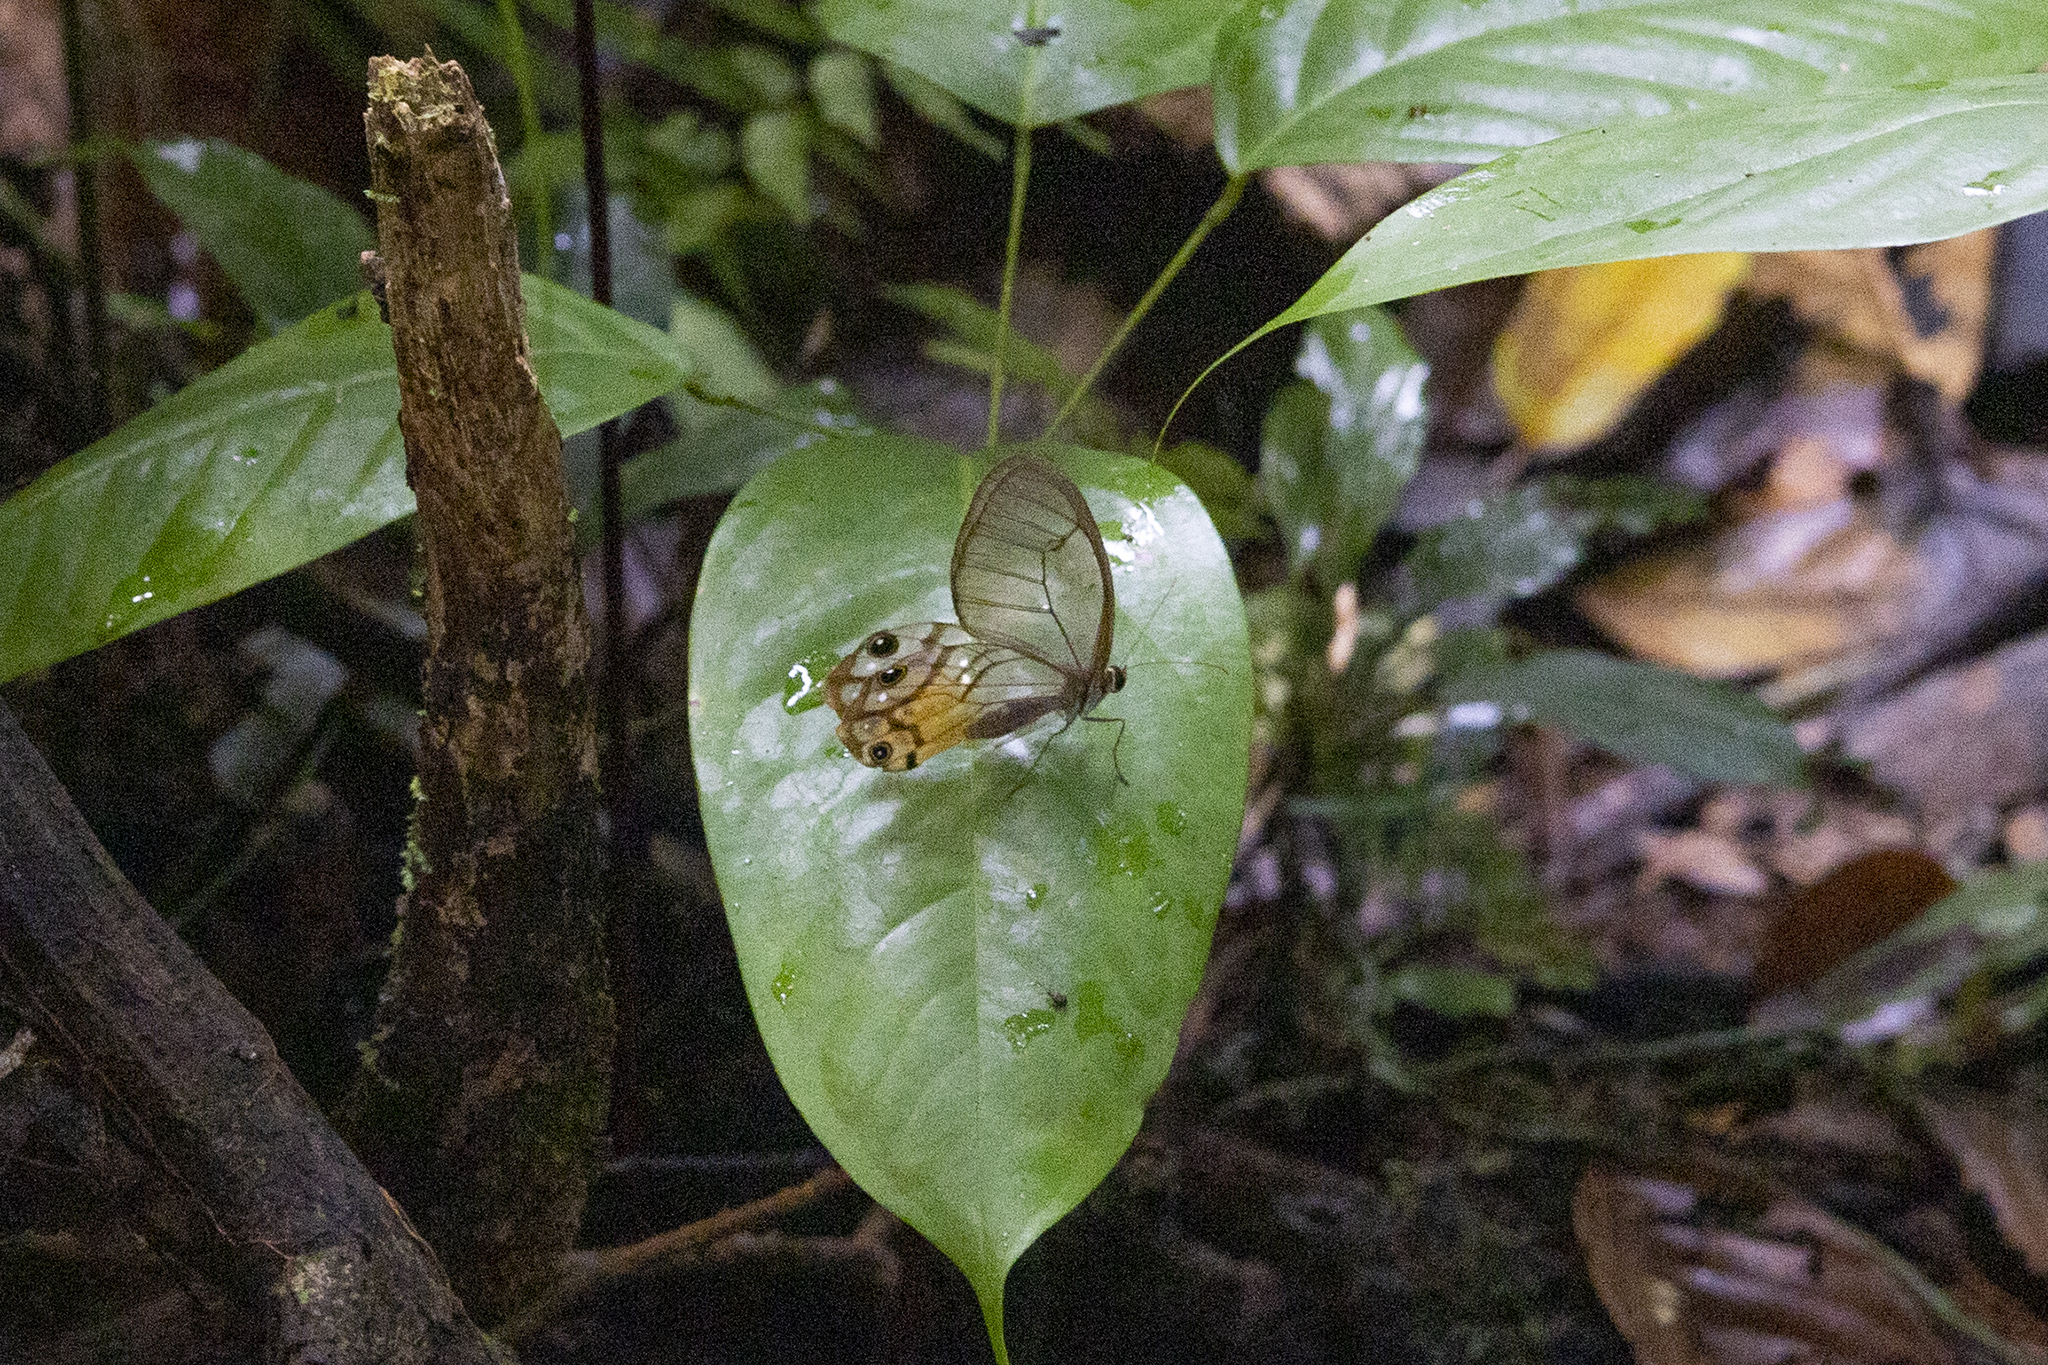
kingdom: Animalia
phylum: Arthropoda
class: Insecta
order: Lepidoptera
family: Nymphalidae
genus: Haetera
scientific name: Haetera piera
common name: Amber phantom
